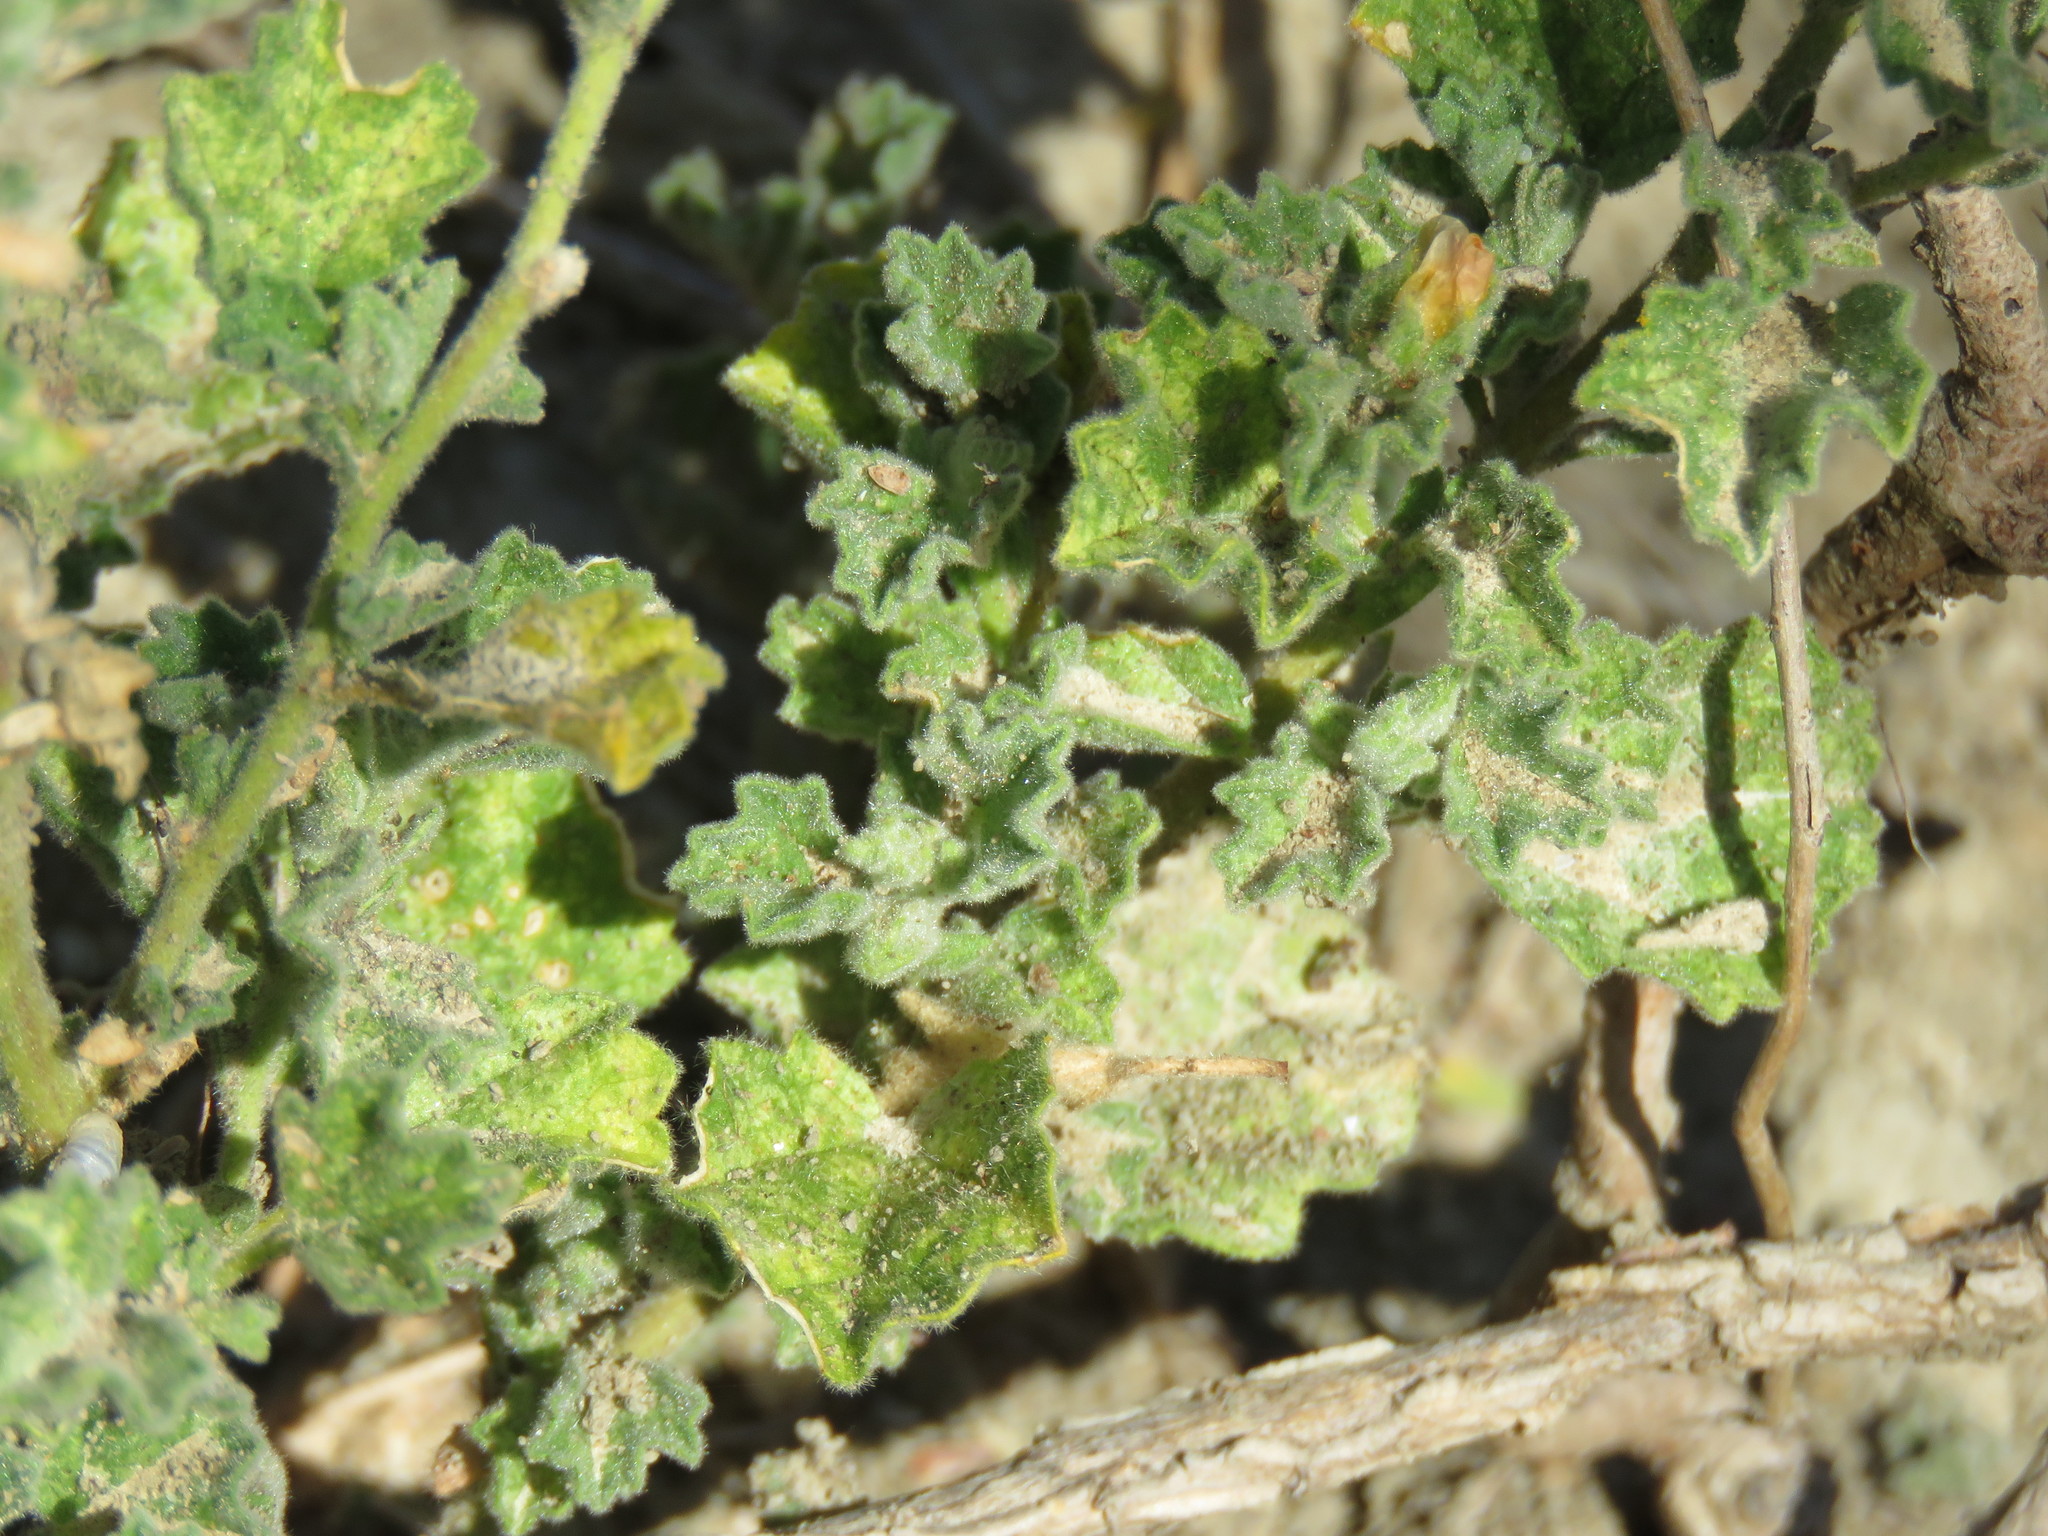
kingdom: Plantae
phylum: Tracheophyta
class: Magnoliopsida
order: Malvales
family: Malvaceae
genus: Billieturnera
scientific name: Billieturnera helleri
